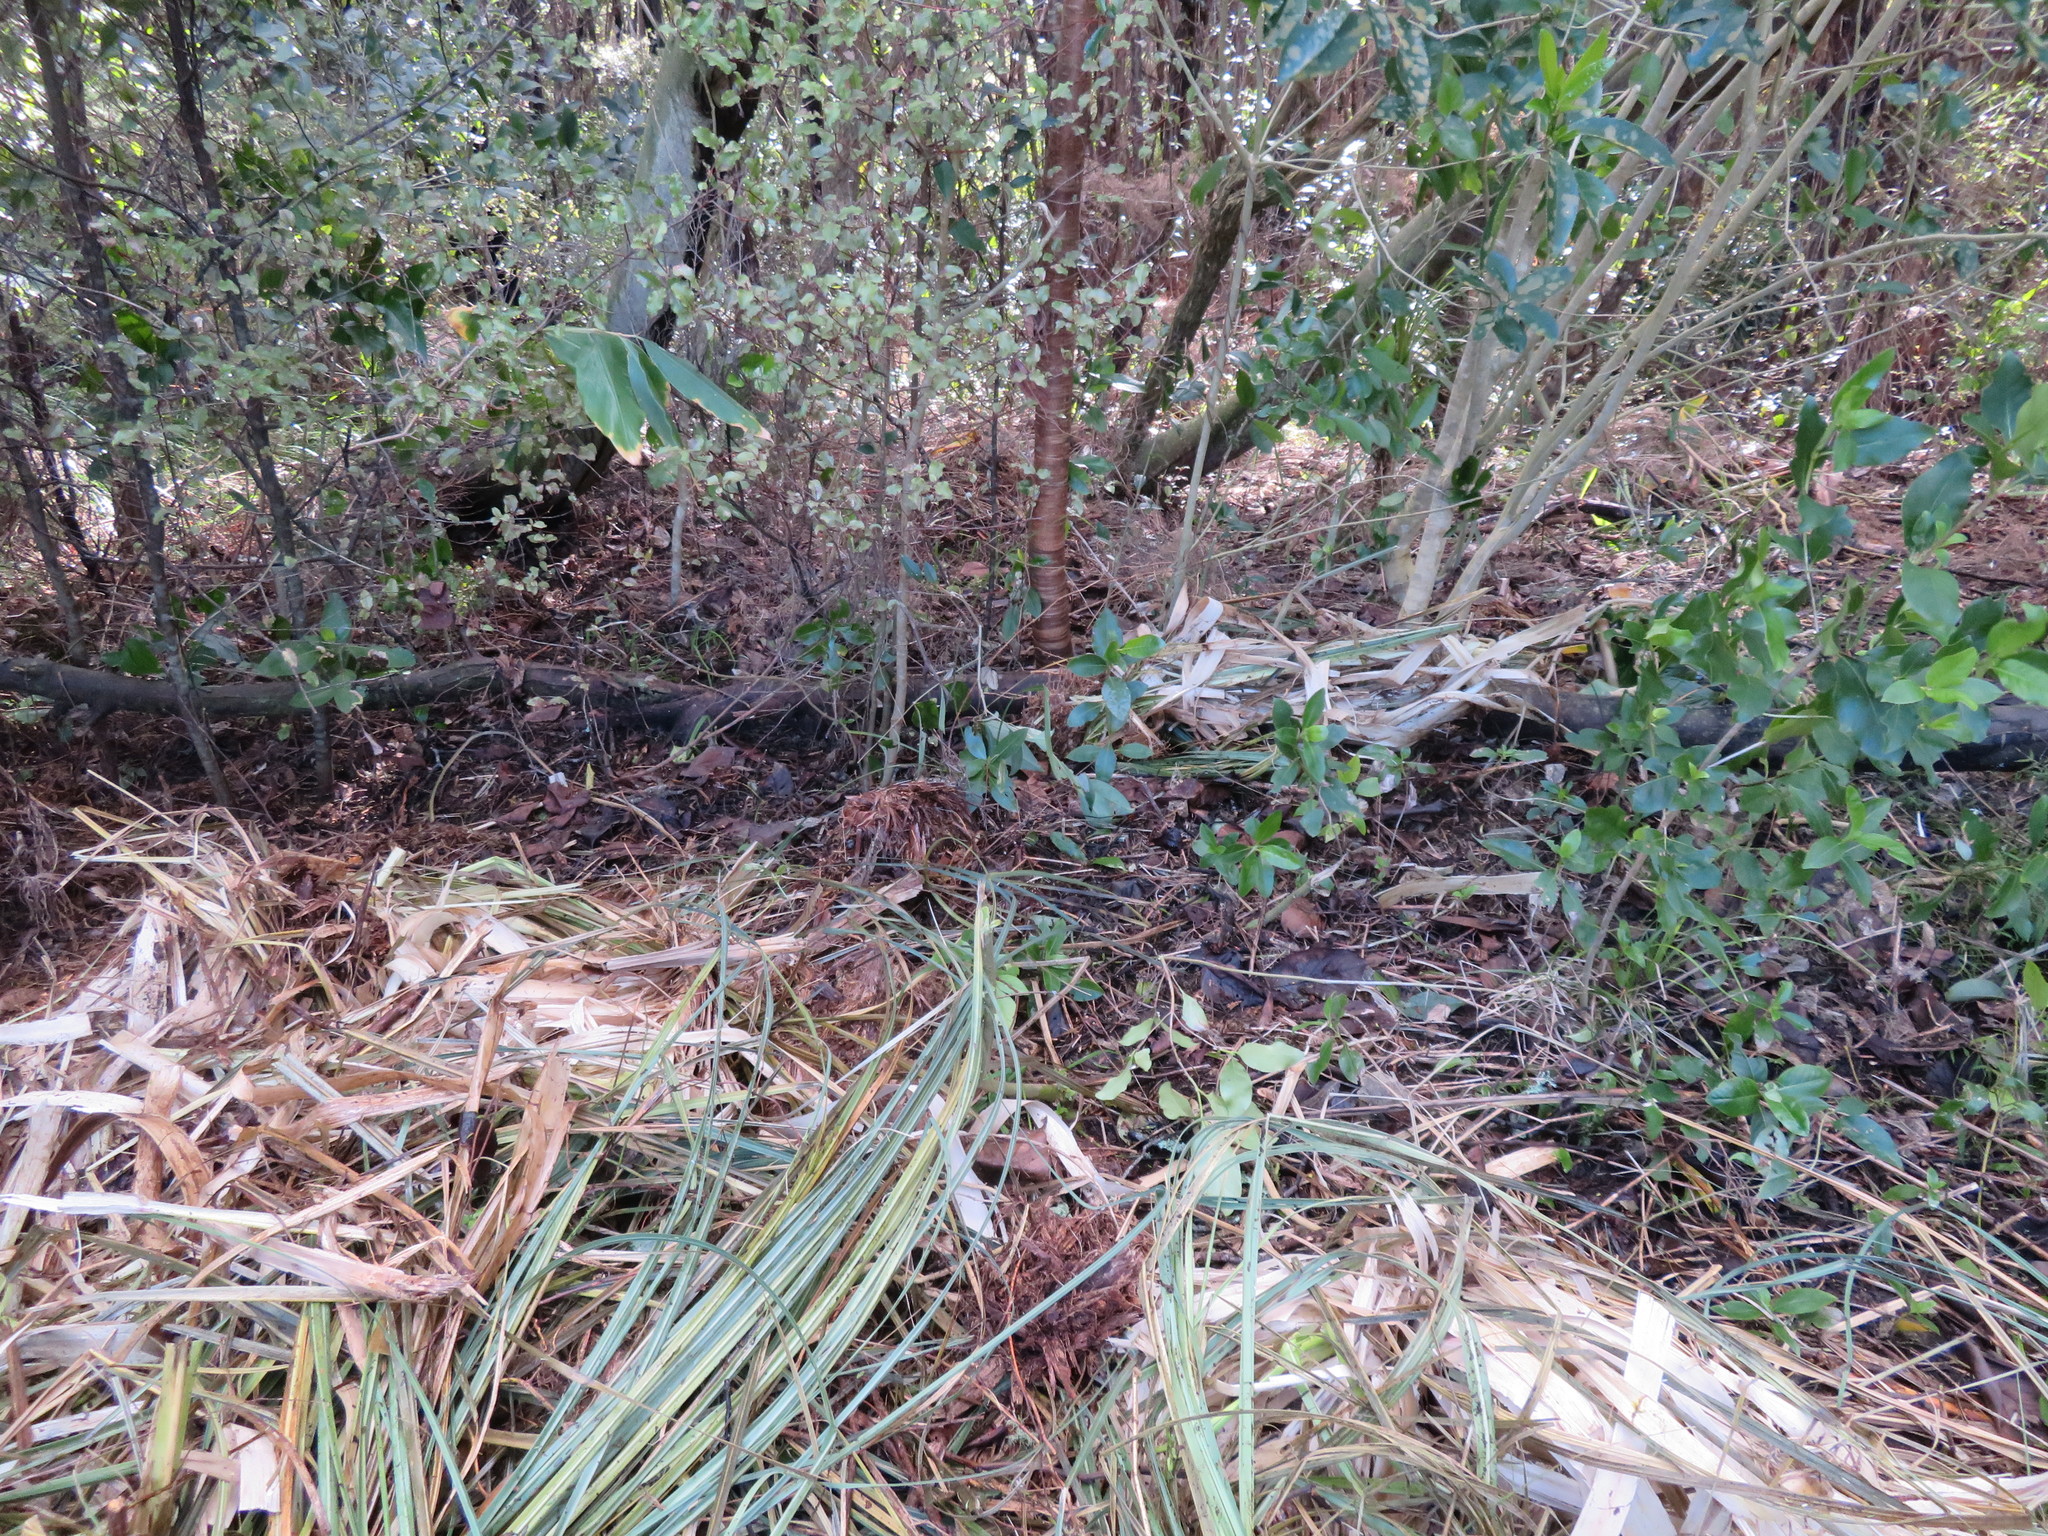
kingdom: Plantae
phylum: Tracheophyta
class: Magnoliopsida
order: Malpighiales
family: Violaceae
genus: Melicytus
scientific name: Melicytus ramiflorus
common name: Mahoe
